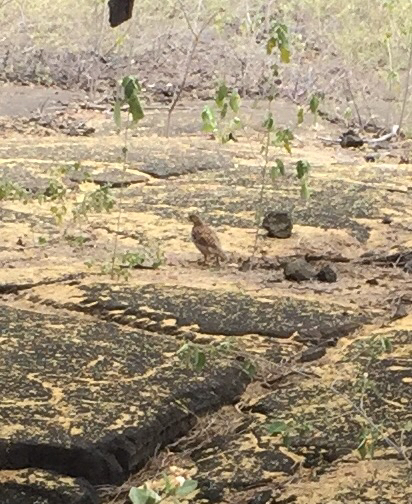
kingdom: Animalia
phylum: Chordata
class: Aves
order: Galliformes
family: Phasianidae
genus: Ortygornis
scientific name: Ortygornis pondicerianus
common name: Grey francolin
